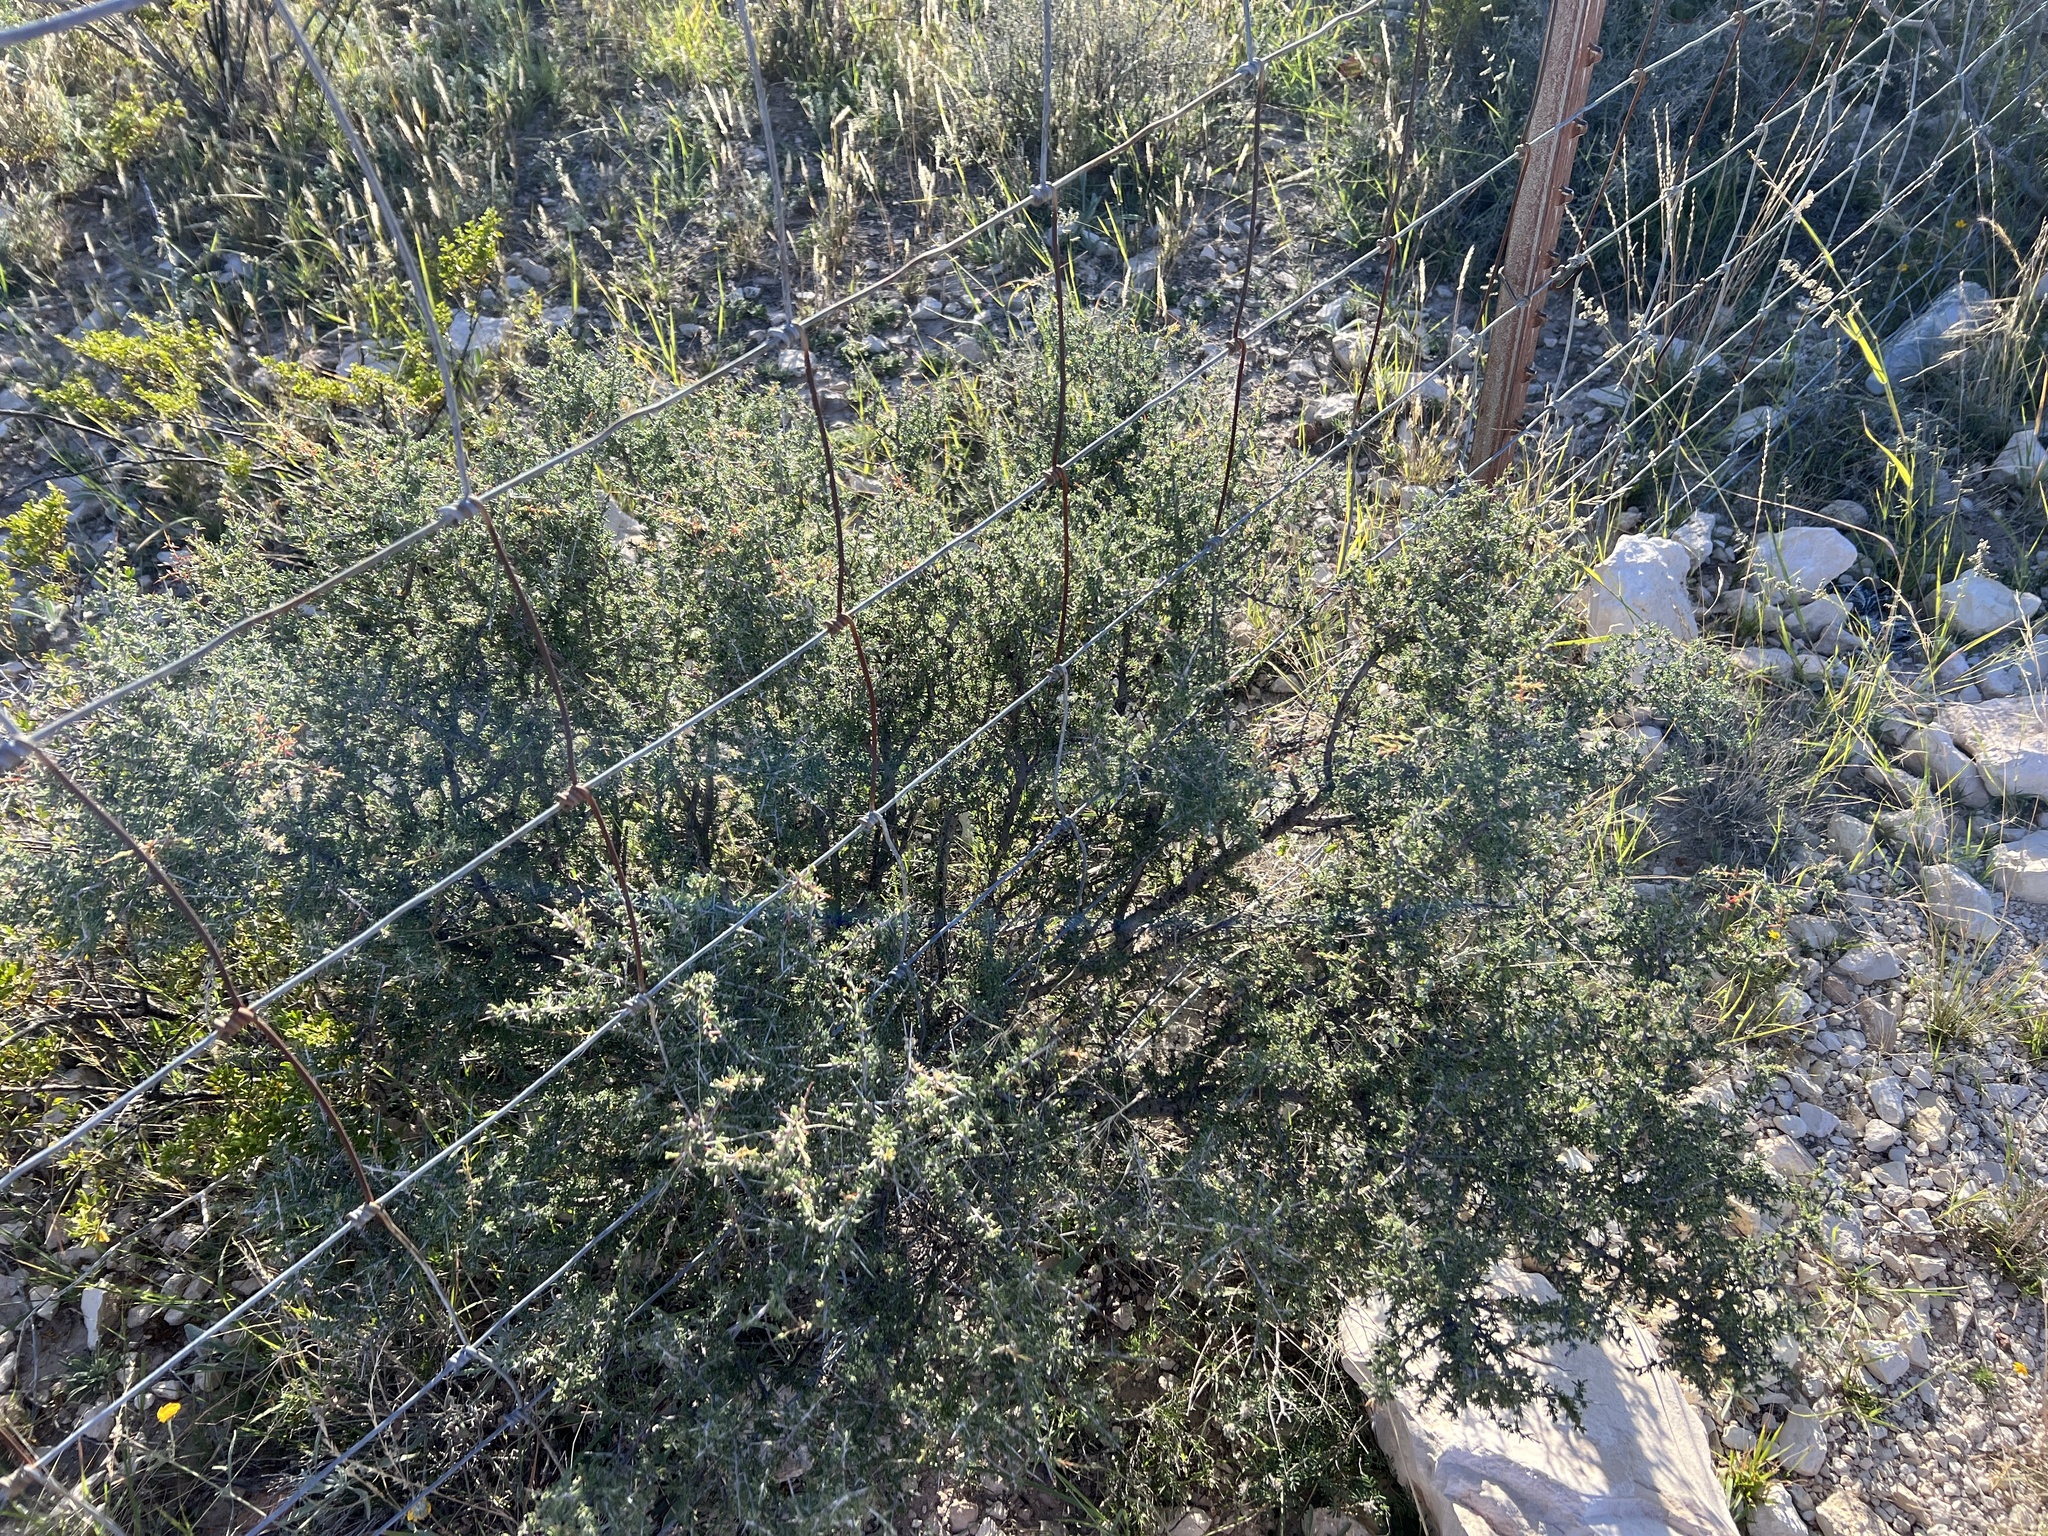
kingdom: Plantae
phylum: Tracheophyta
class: Magnoliopsida
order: Rosales
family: Rhamnaceae
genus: Condalia
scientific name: Condalia ericoides
